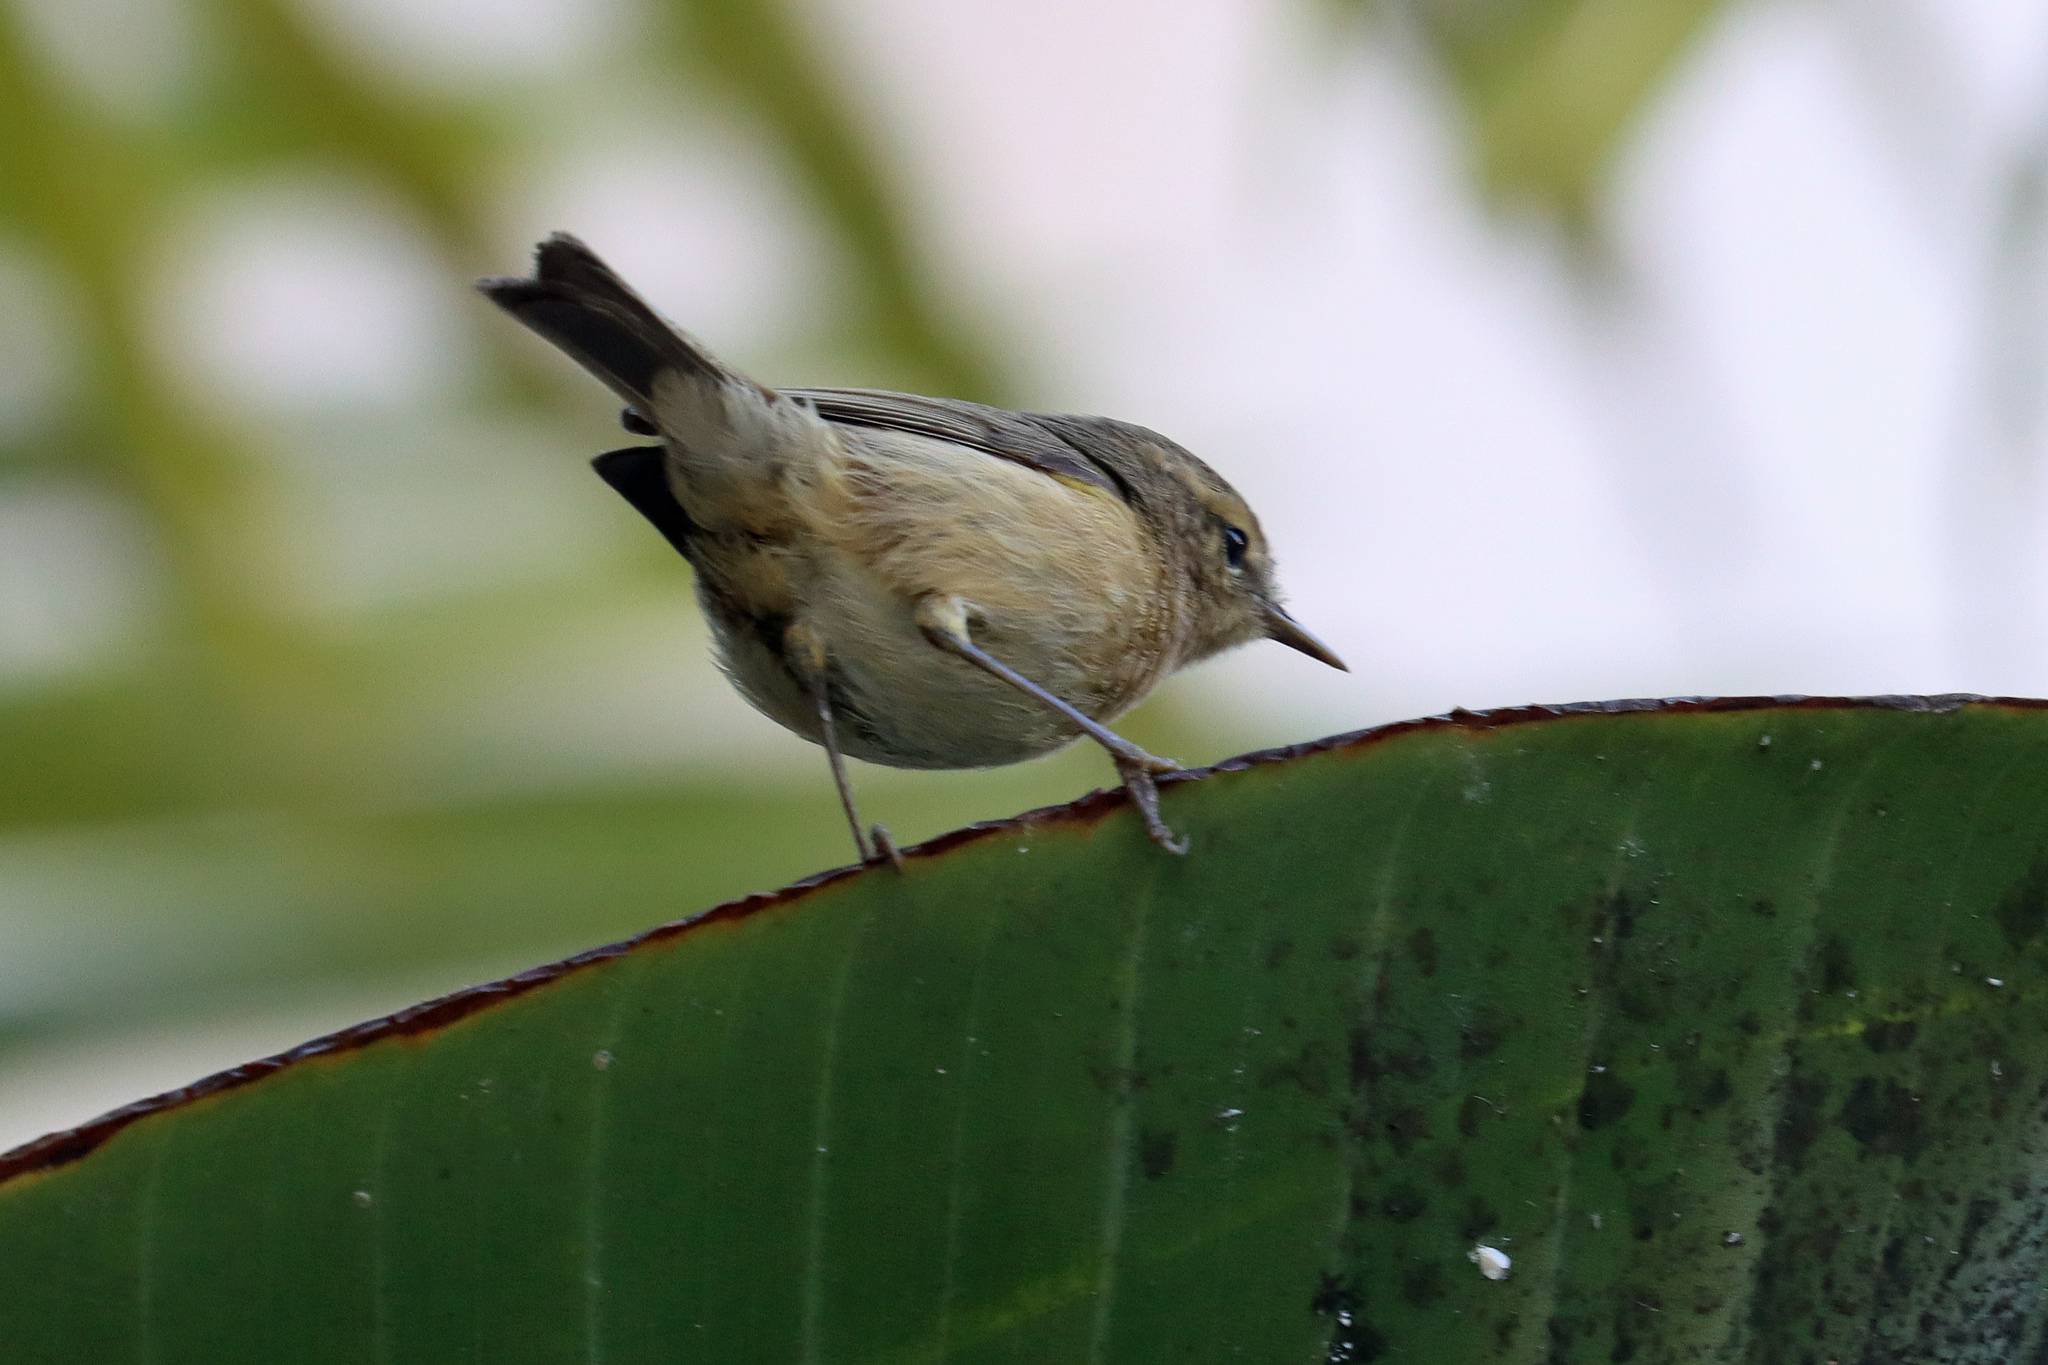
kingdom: Animalia
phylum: Chordata
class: Aves
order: Passeriformes
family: Phylloscopidae
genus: Phylloscopus
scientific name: Phylloscopus canariensis
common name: Canary islands chiffchaff
